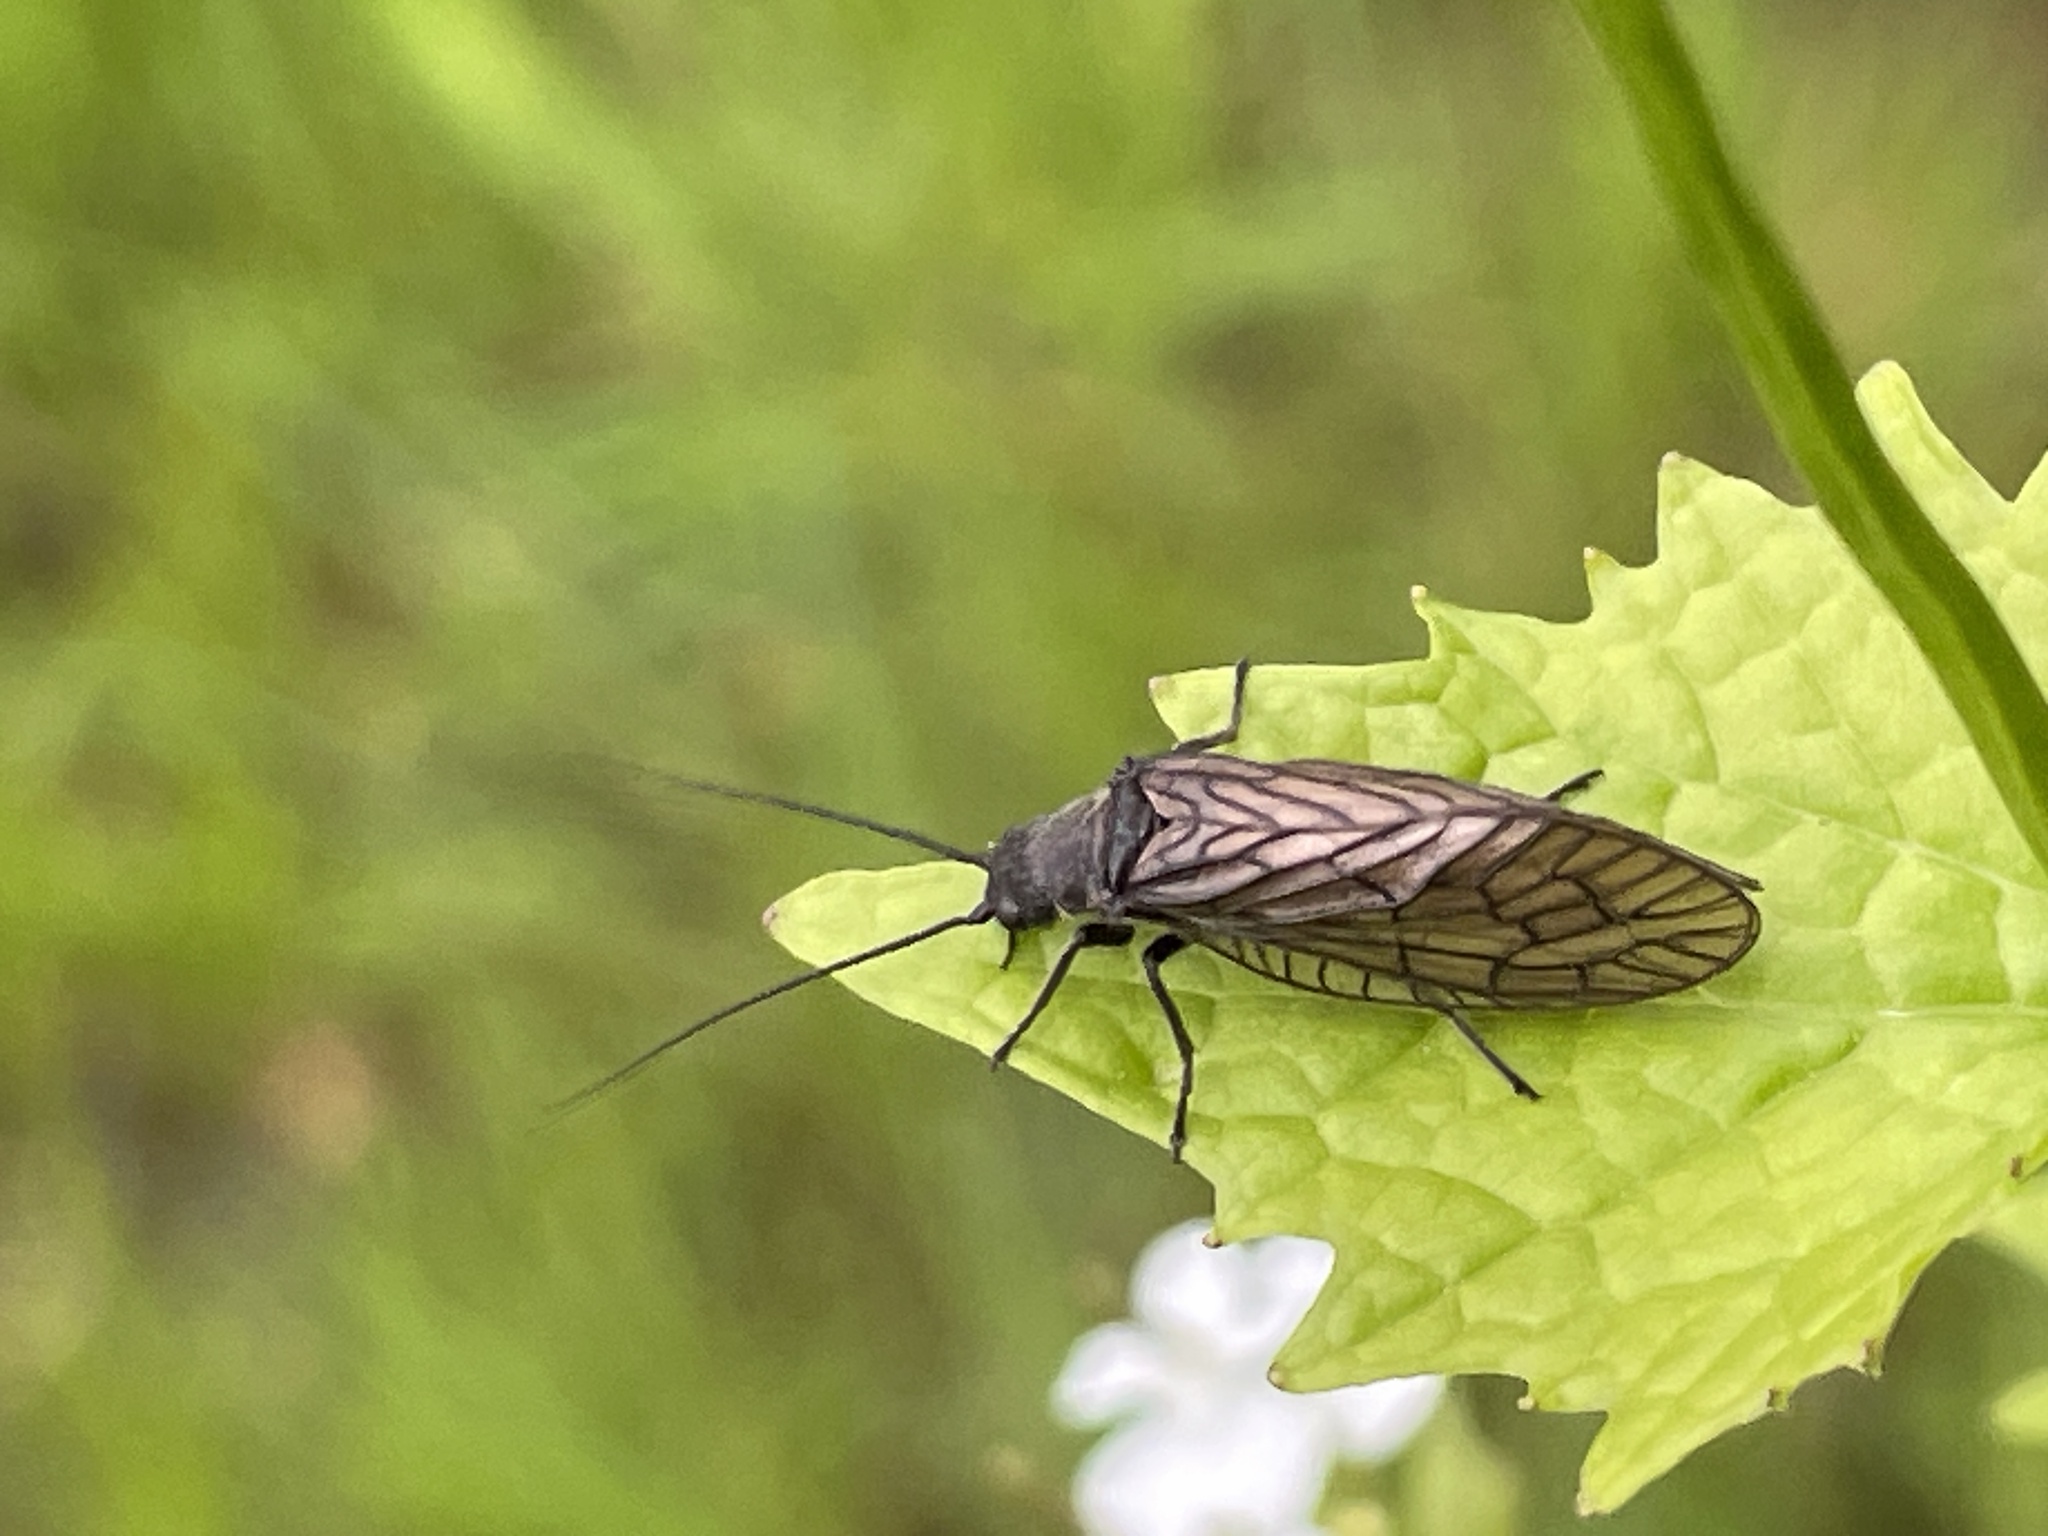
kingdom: Animalia
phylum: Arthropoda
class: Insecta
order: Megaloptera
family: Sialidae
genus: Sialis
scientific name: Sialis
